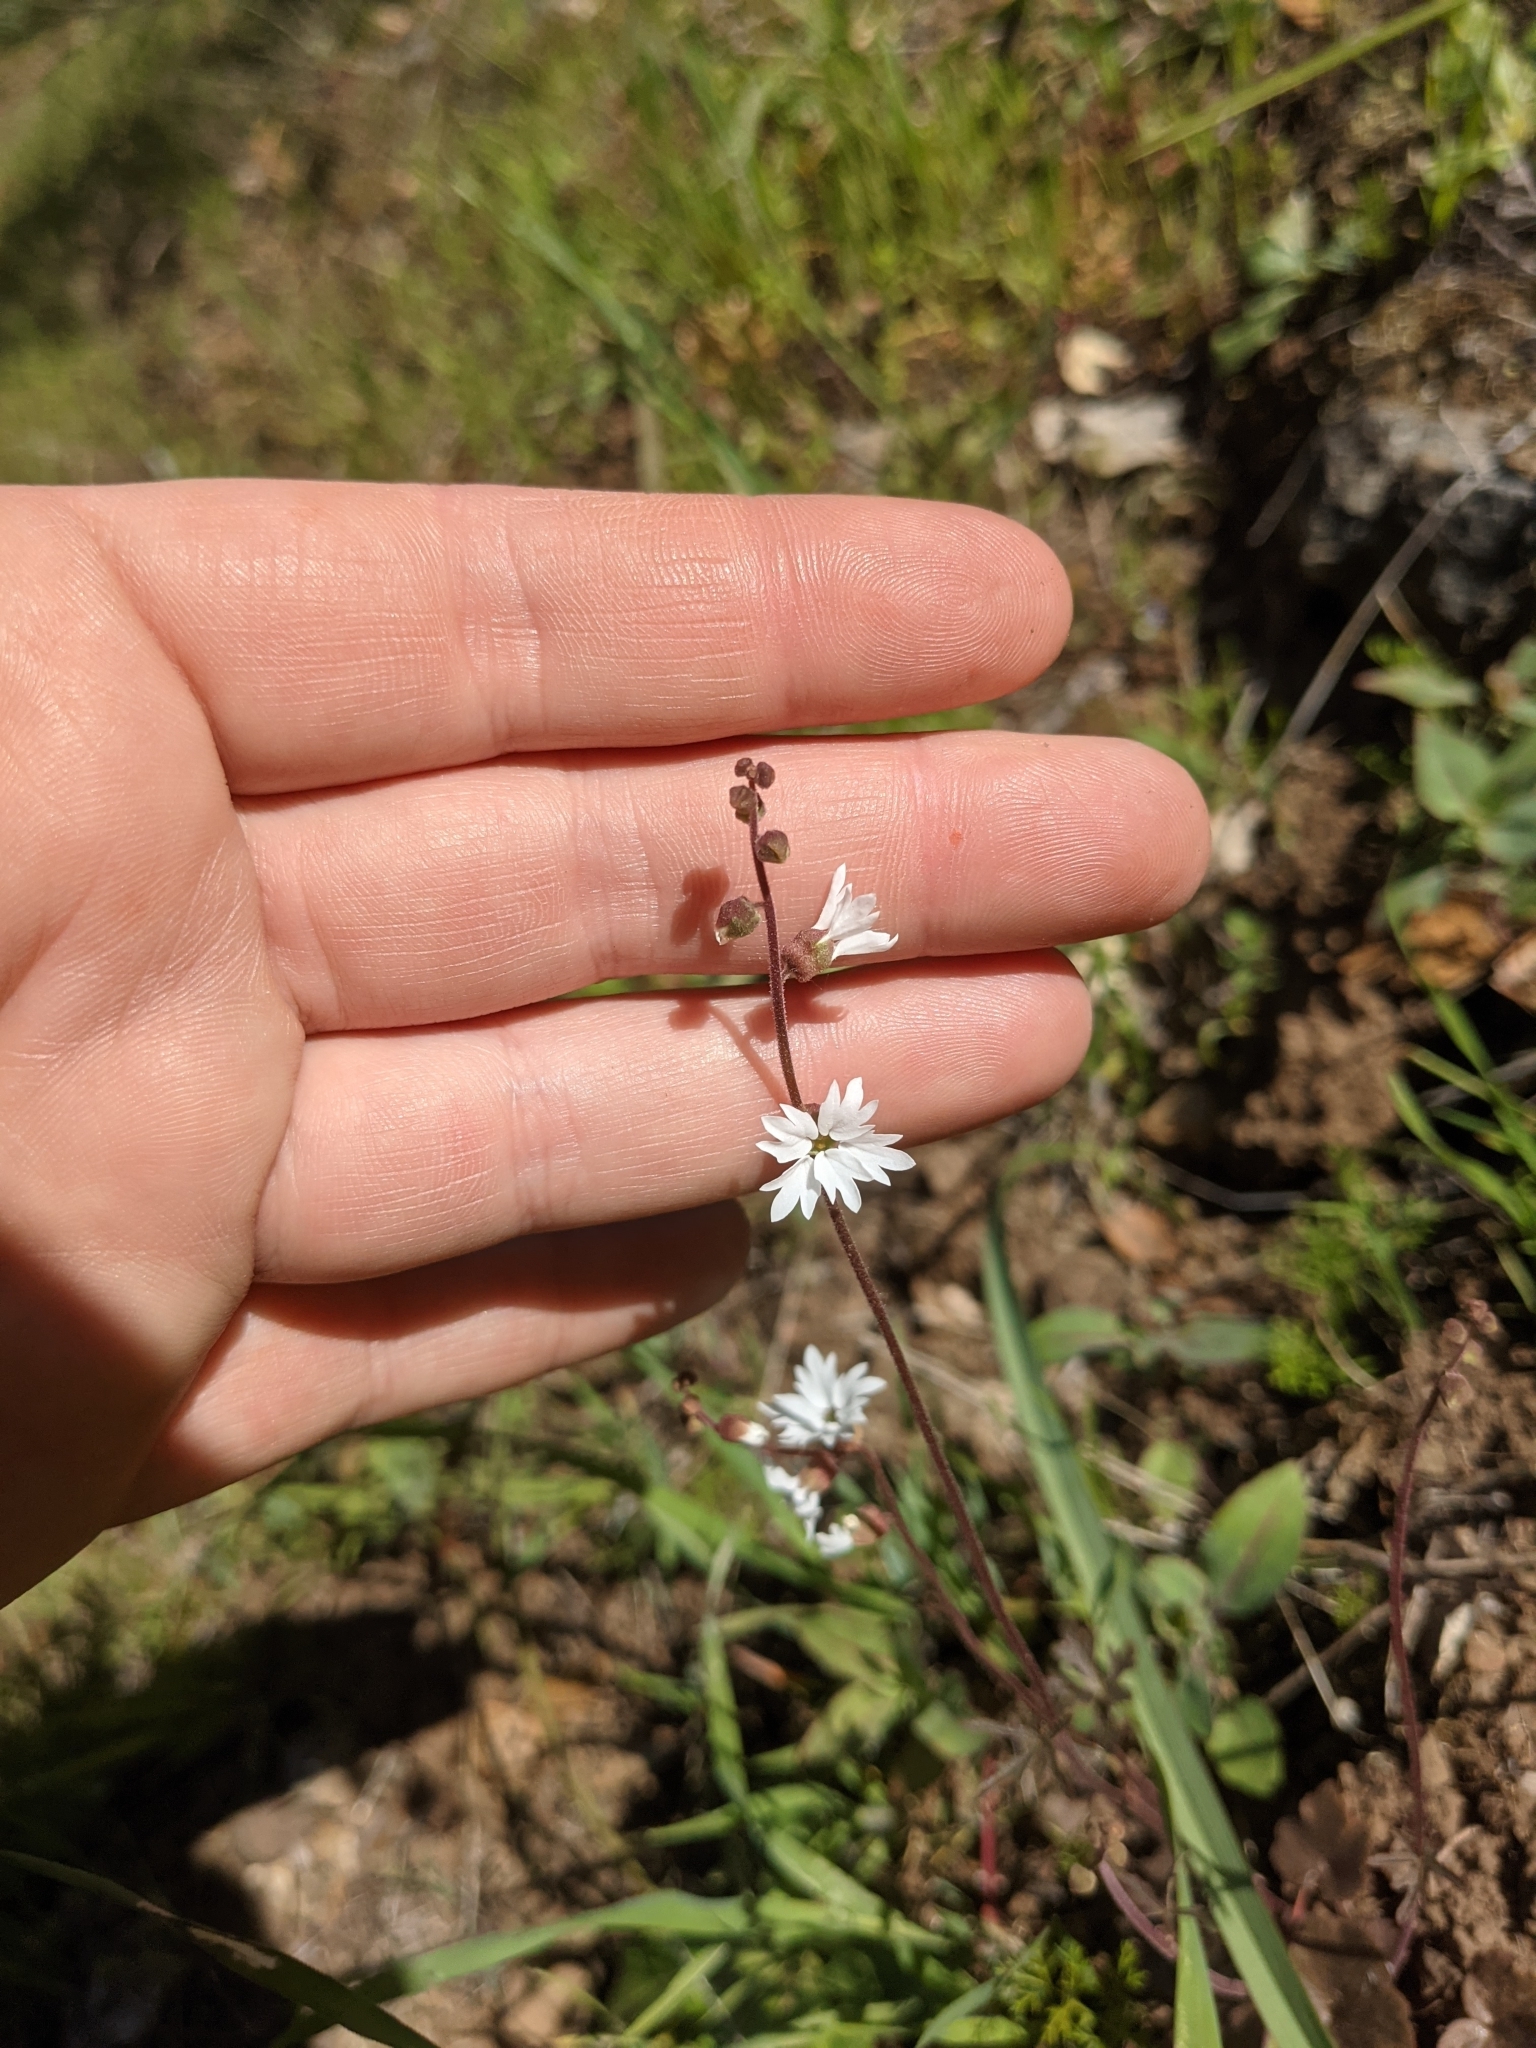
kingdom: Plantae
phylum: Tracheophyta
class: Magnoliopsida
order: Saxifragales
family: Saxifragaceae
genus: Lithophragma
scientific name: Lithophragma heterophyllum
